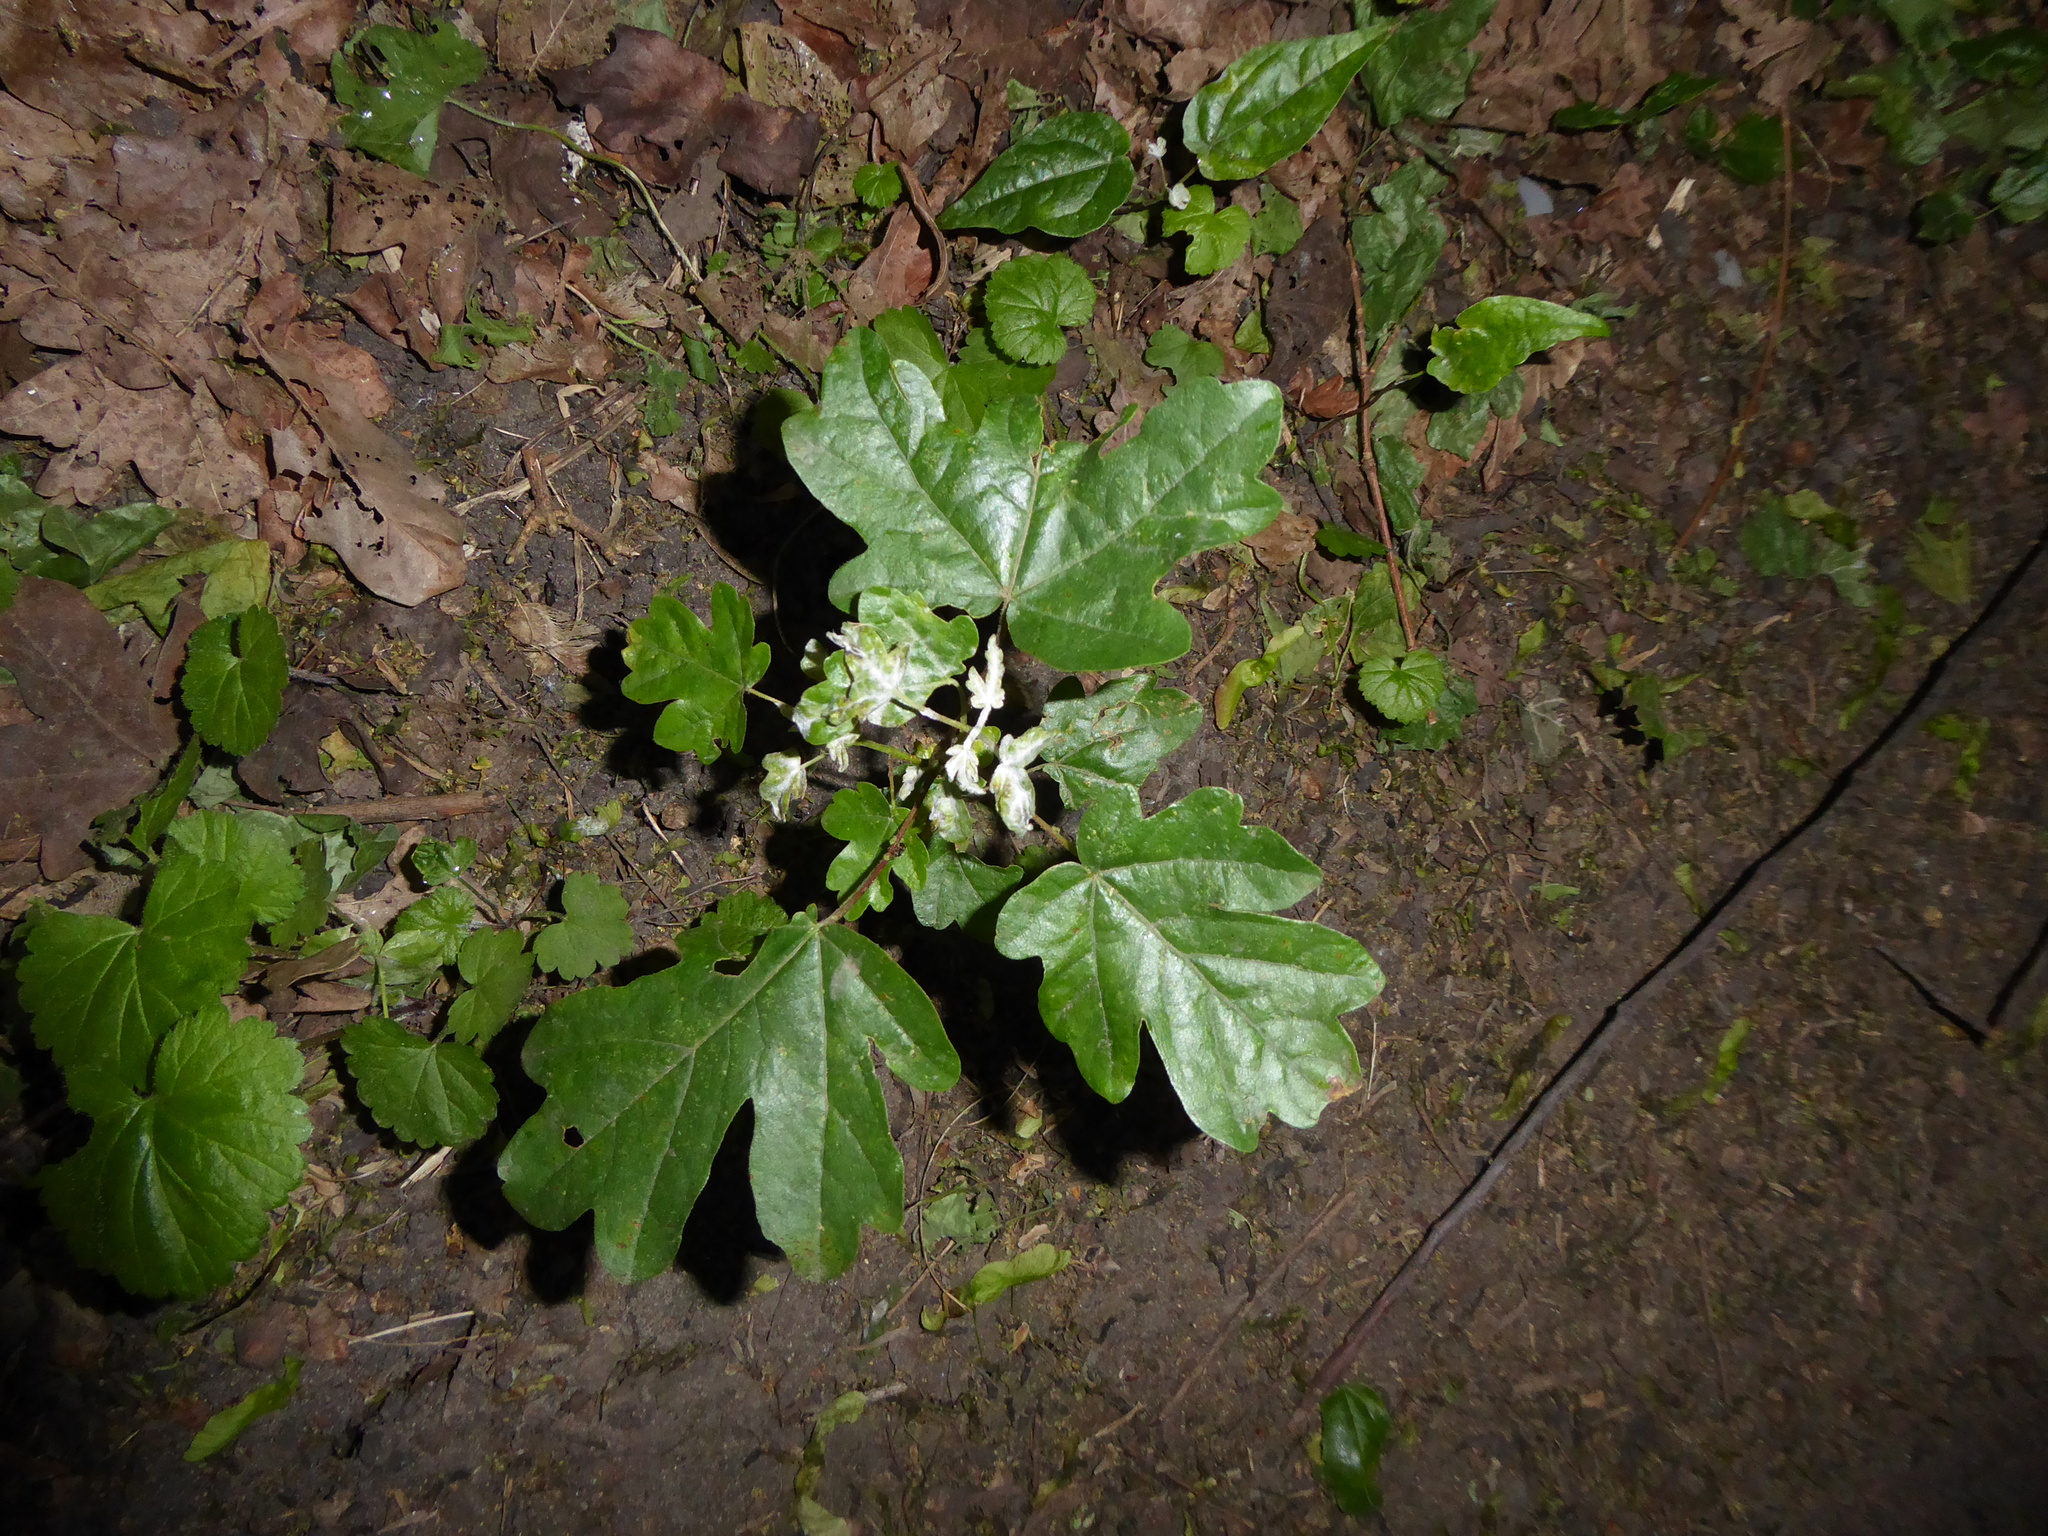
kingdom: Plantae
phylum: Tracheophyta
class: Magnoliopsida
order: Sapindales
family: Sapindaceae
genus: Acer
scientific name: Acer campestre
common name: Field maple
